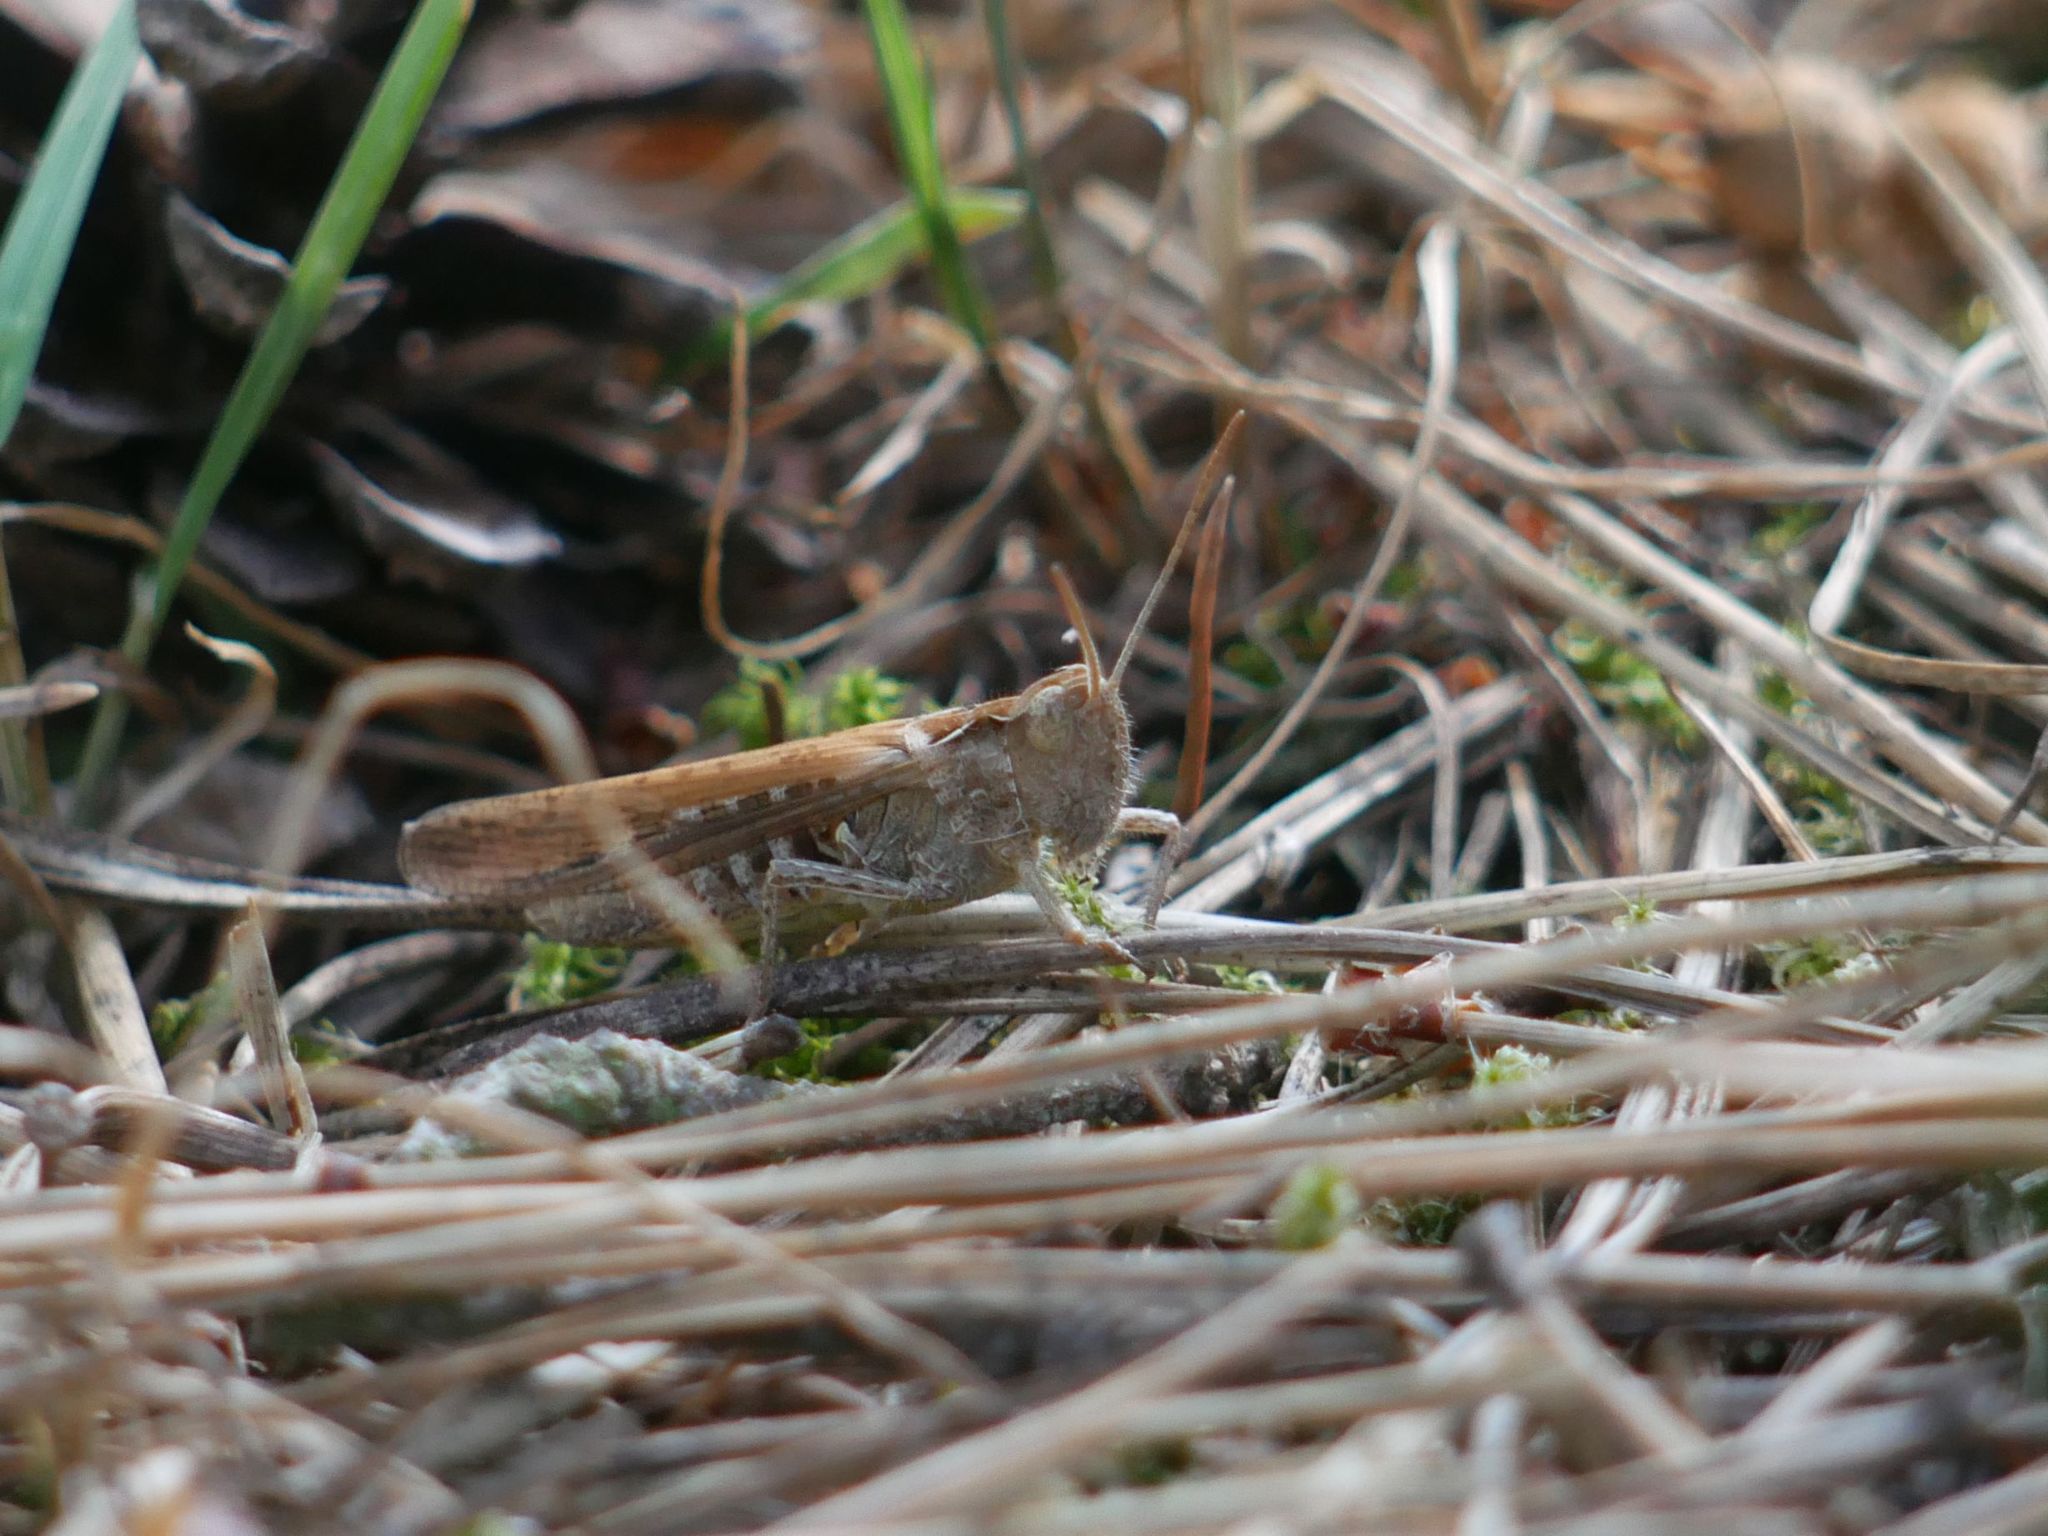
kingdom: Animalia
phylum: Arthropoda
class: Insecta
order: Orthoptera
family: Acrididae
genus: Chorthippus
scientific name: Chorthippus brunneus
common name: Field grasshopper
